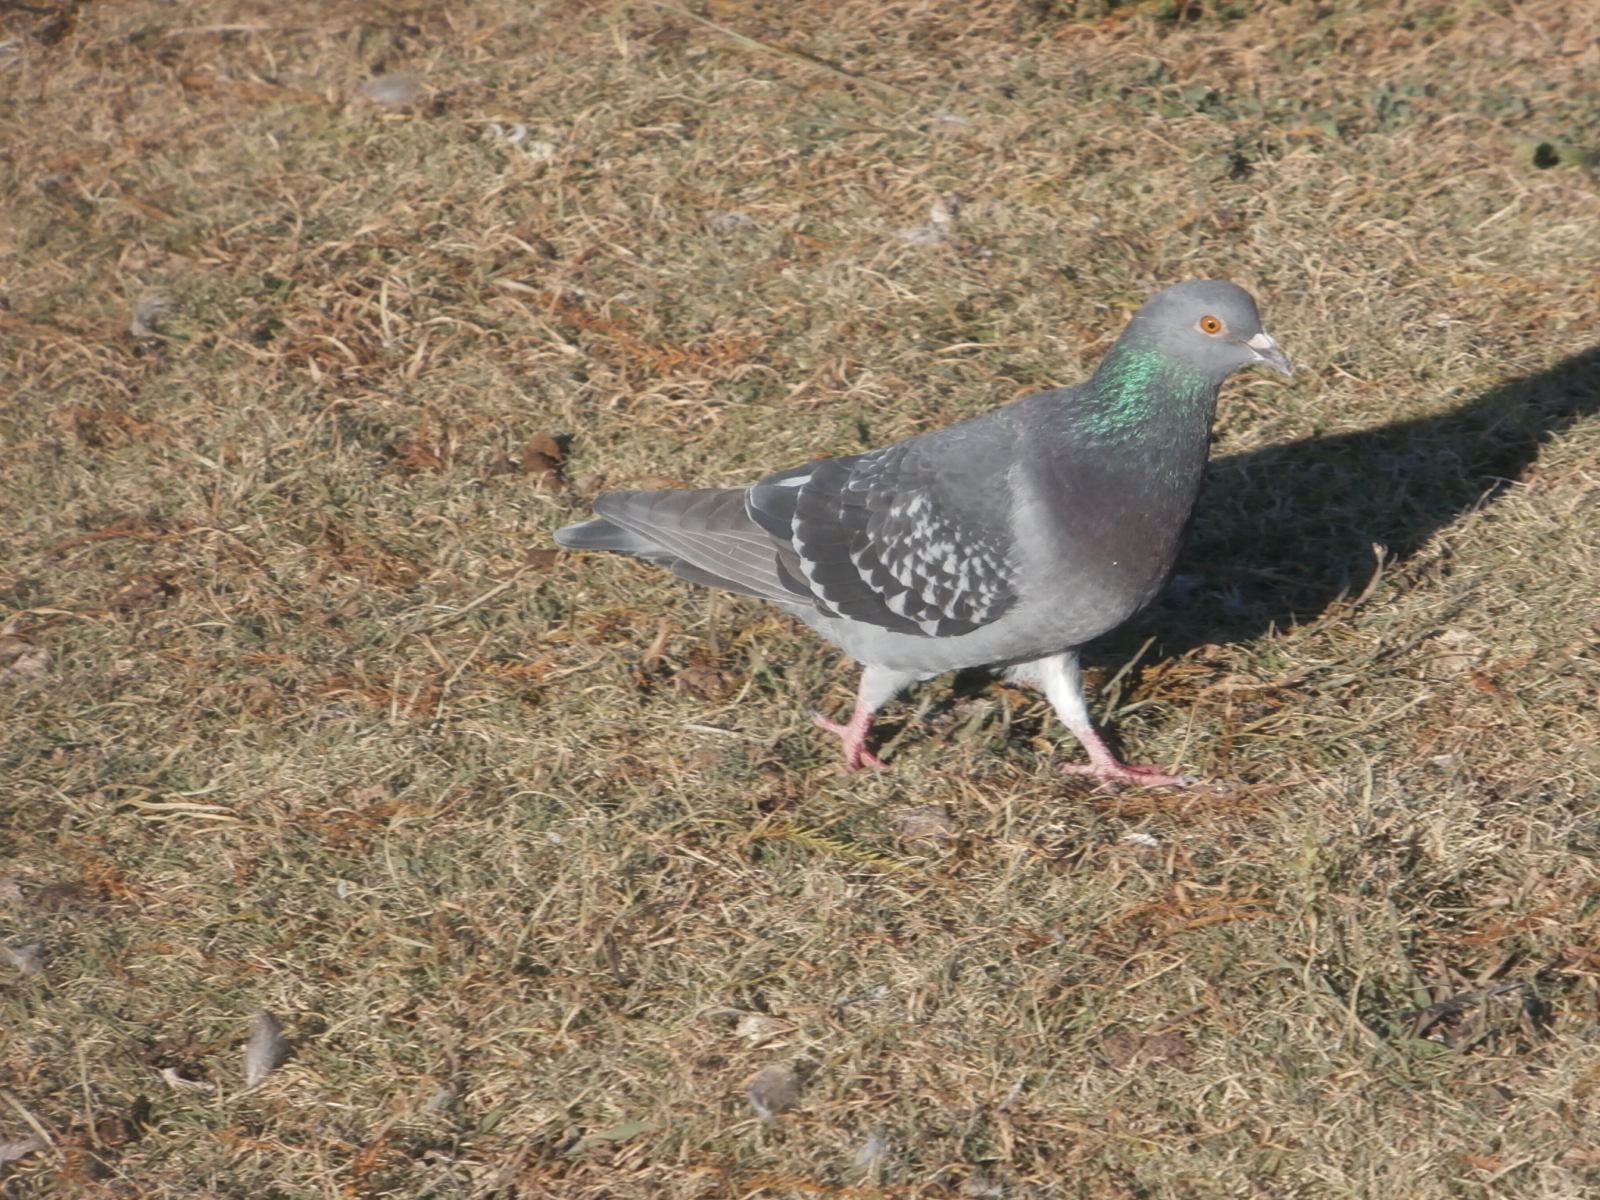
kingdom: Animalia
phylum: Chordata
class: Aves
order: Columbiformes
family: Columbidae
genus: Columba
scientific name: Columba livia
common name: Rock pigeon
